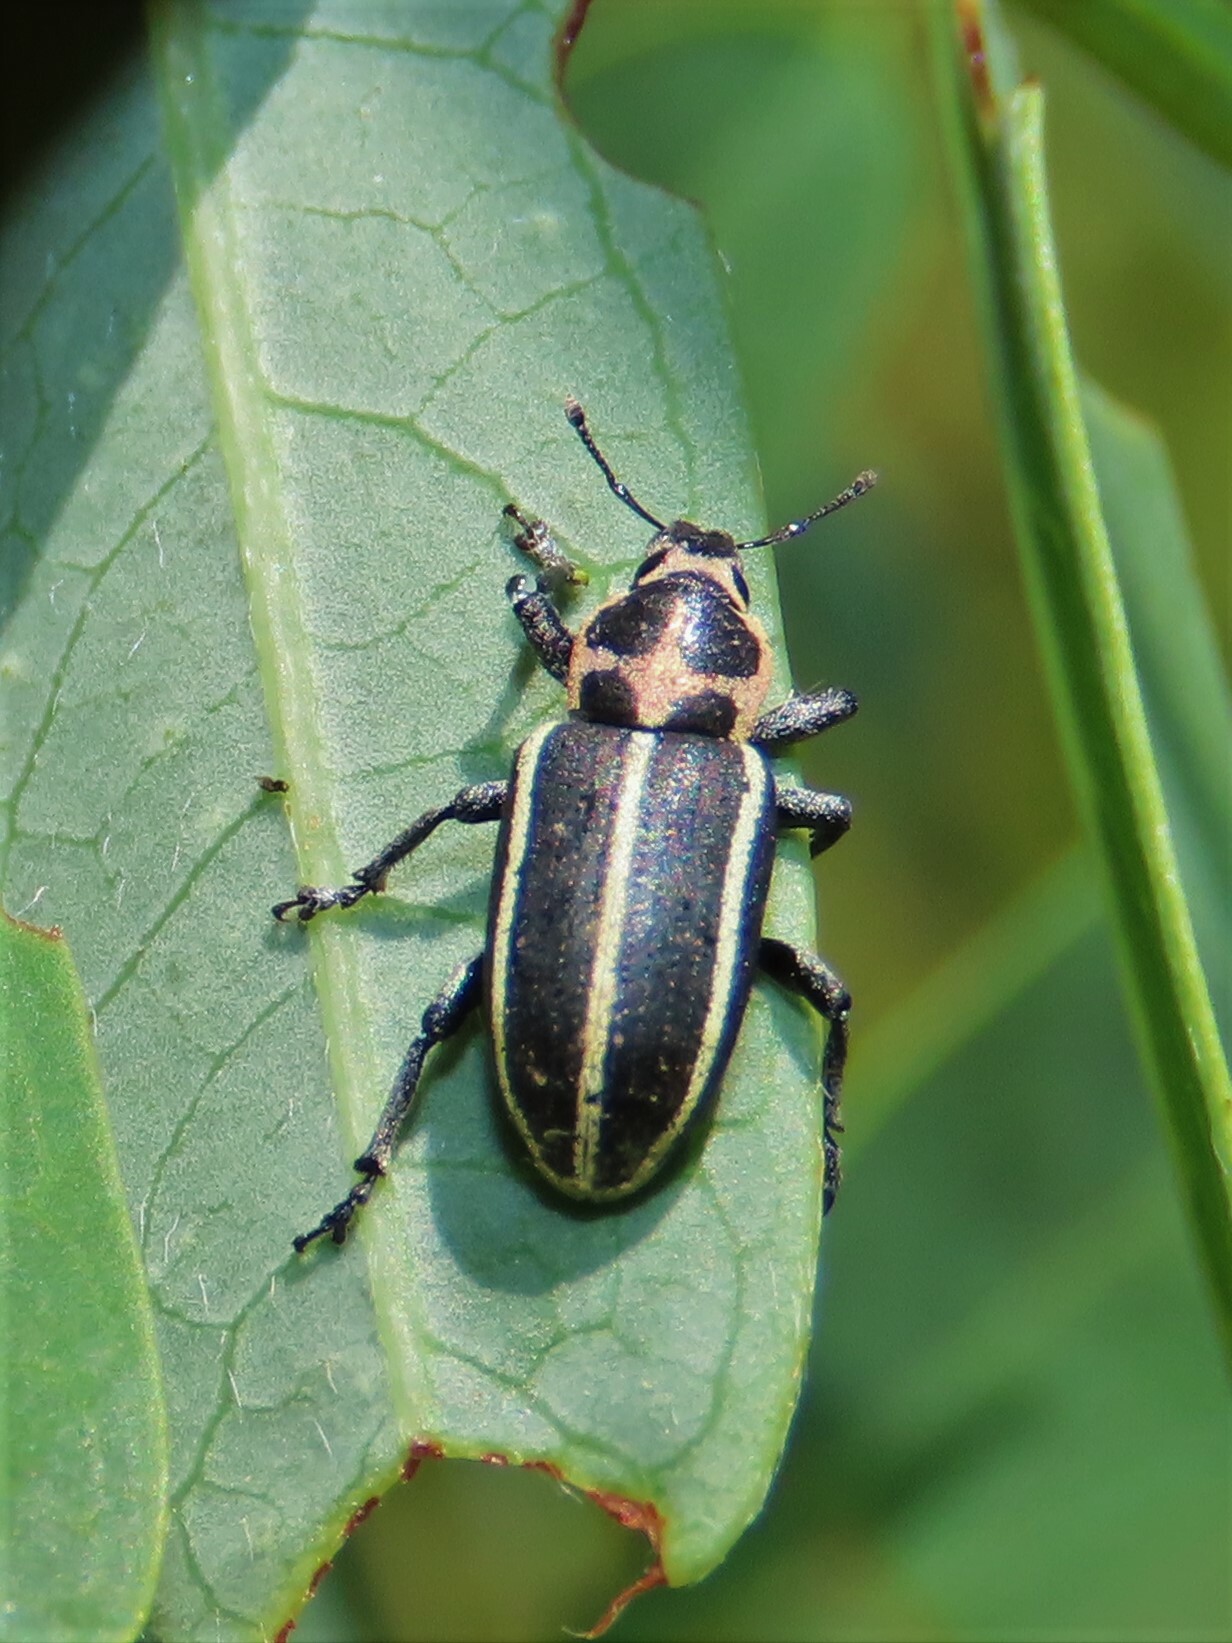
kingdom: Animalia
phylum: Arthropoda
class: Insecta
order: Coleoptera
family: Curculionidae
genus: Eudiagogus
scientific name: Eudiagogus maryae
